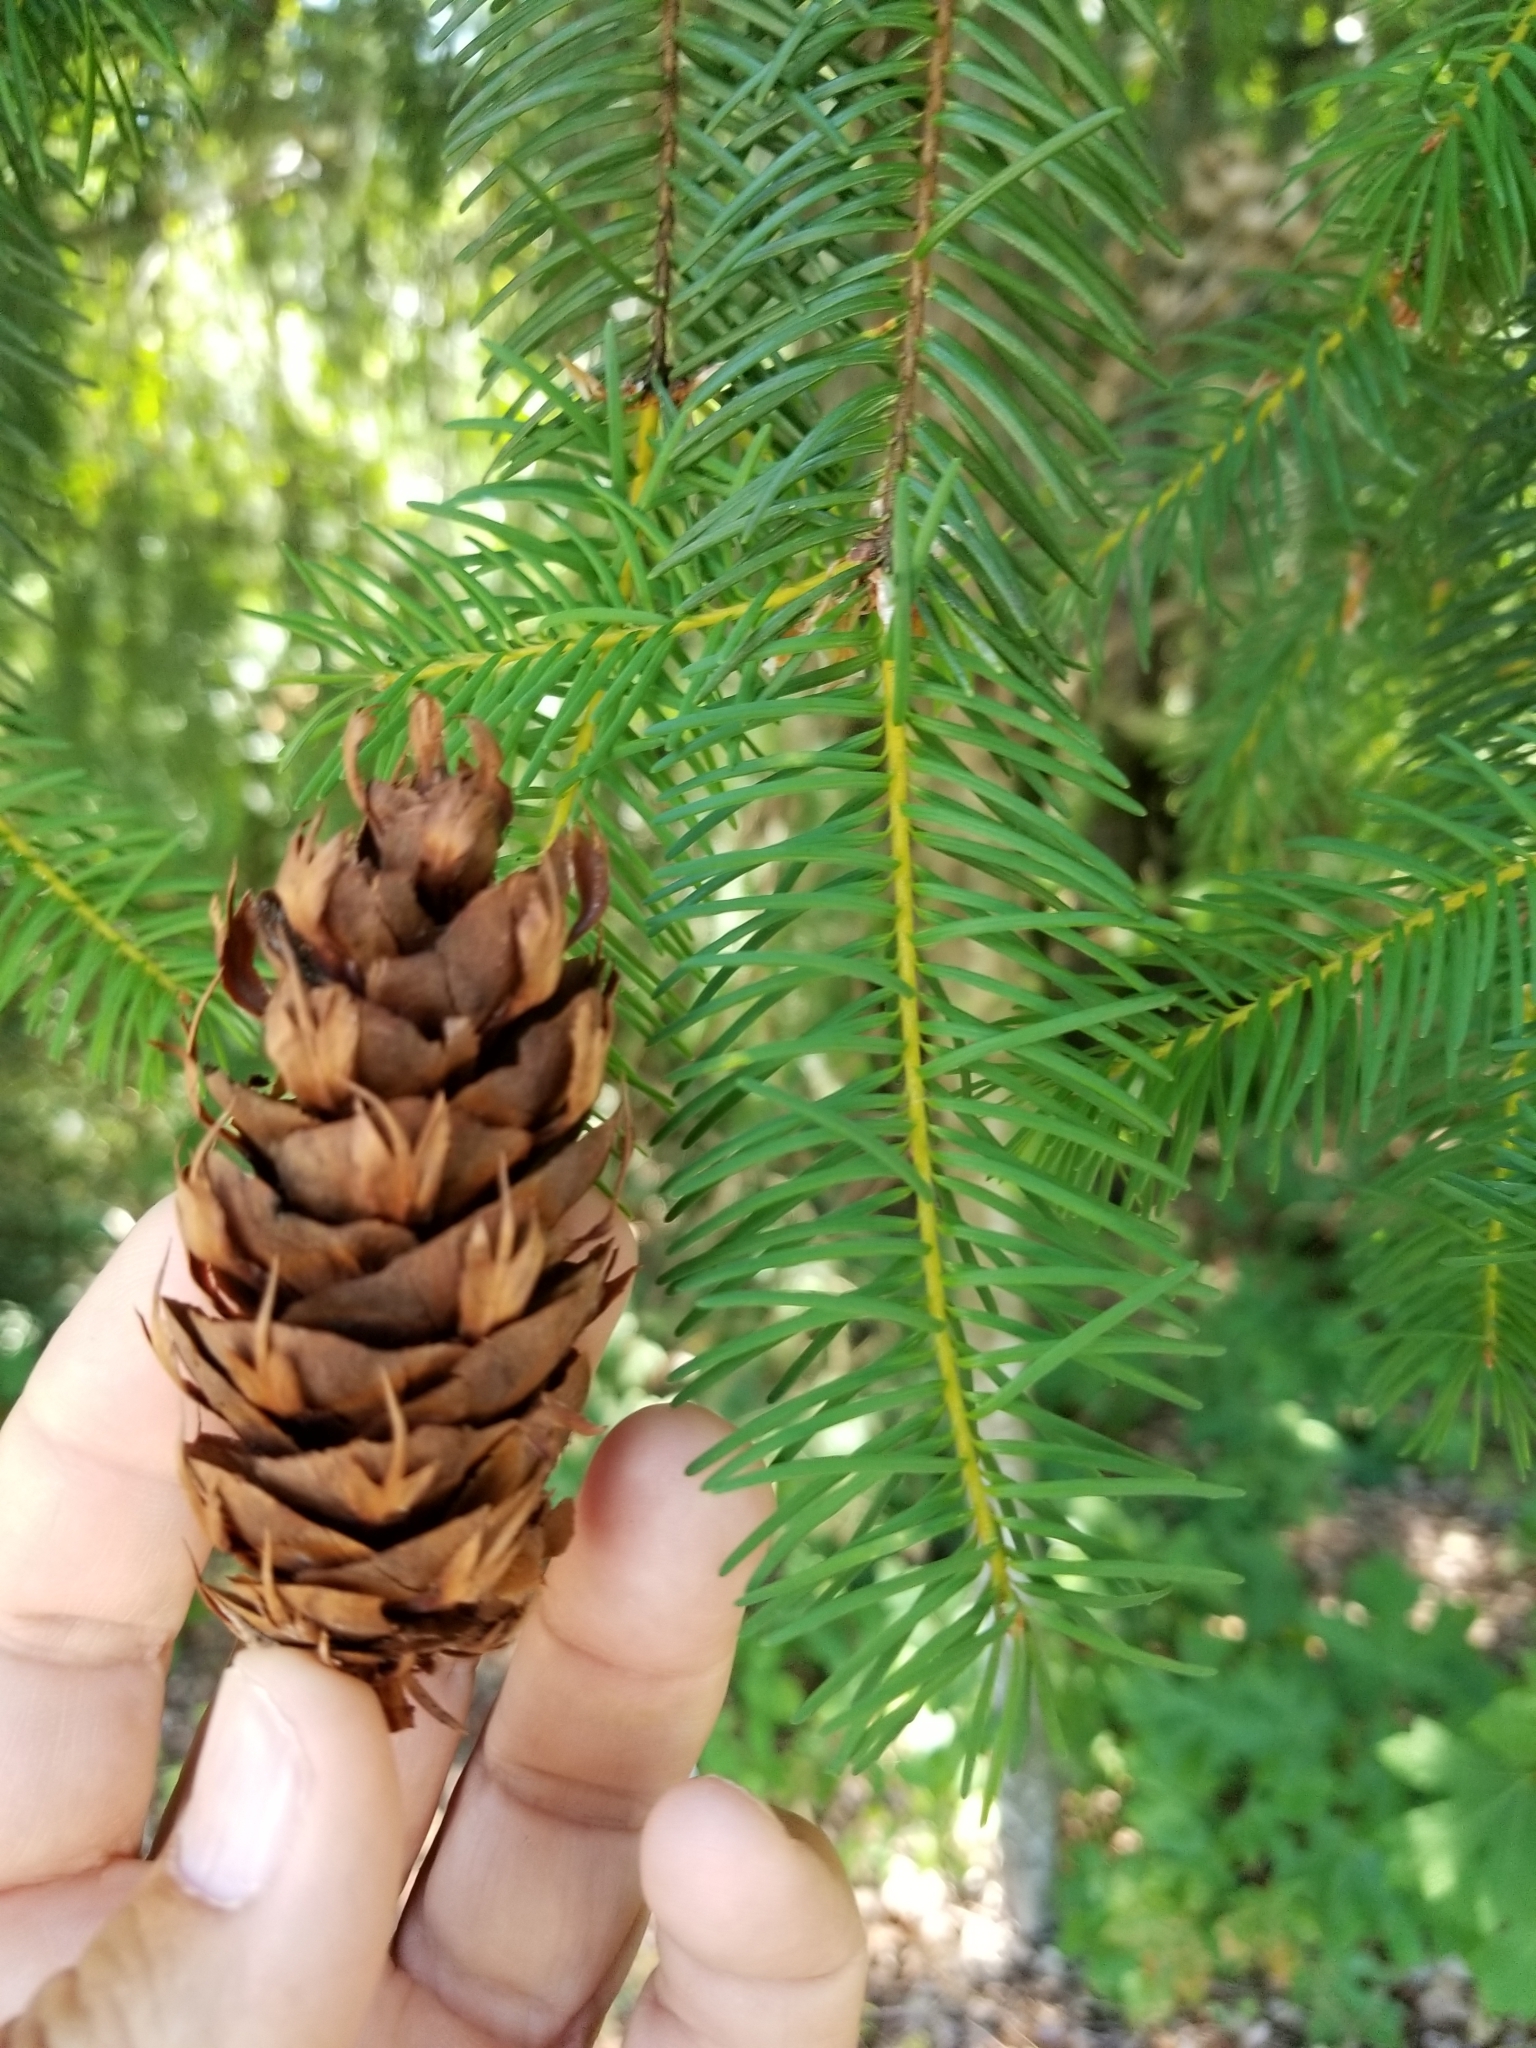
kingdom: Plantae
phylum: Tracheophyta
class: Pinopsida
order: Pinales
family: Pinaceae
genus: Pseudotsuga
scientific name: Pseudotsuga menziesii
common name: Douglas fir
